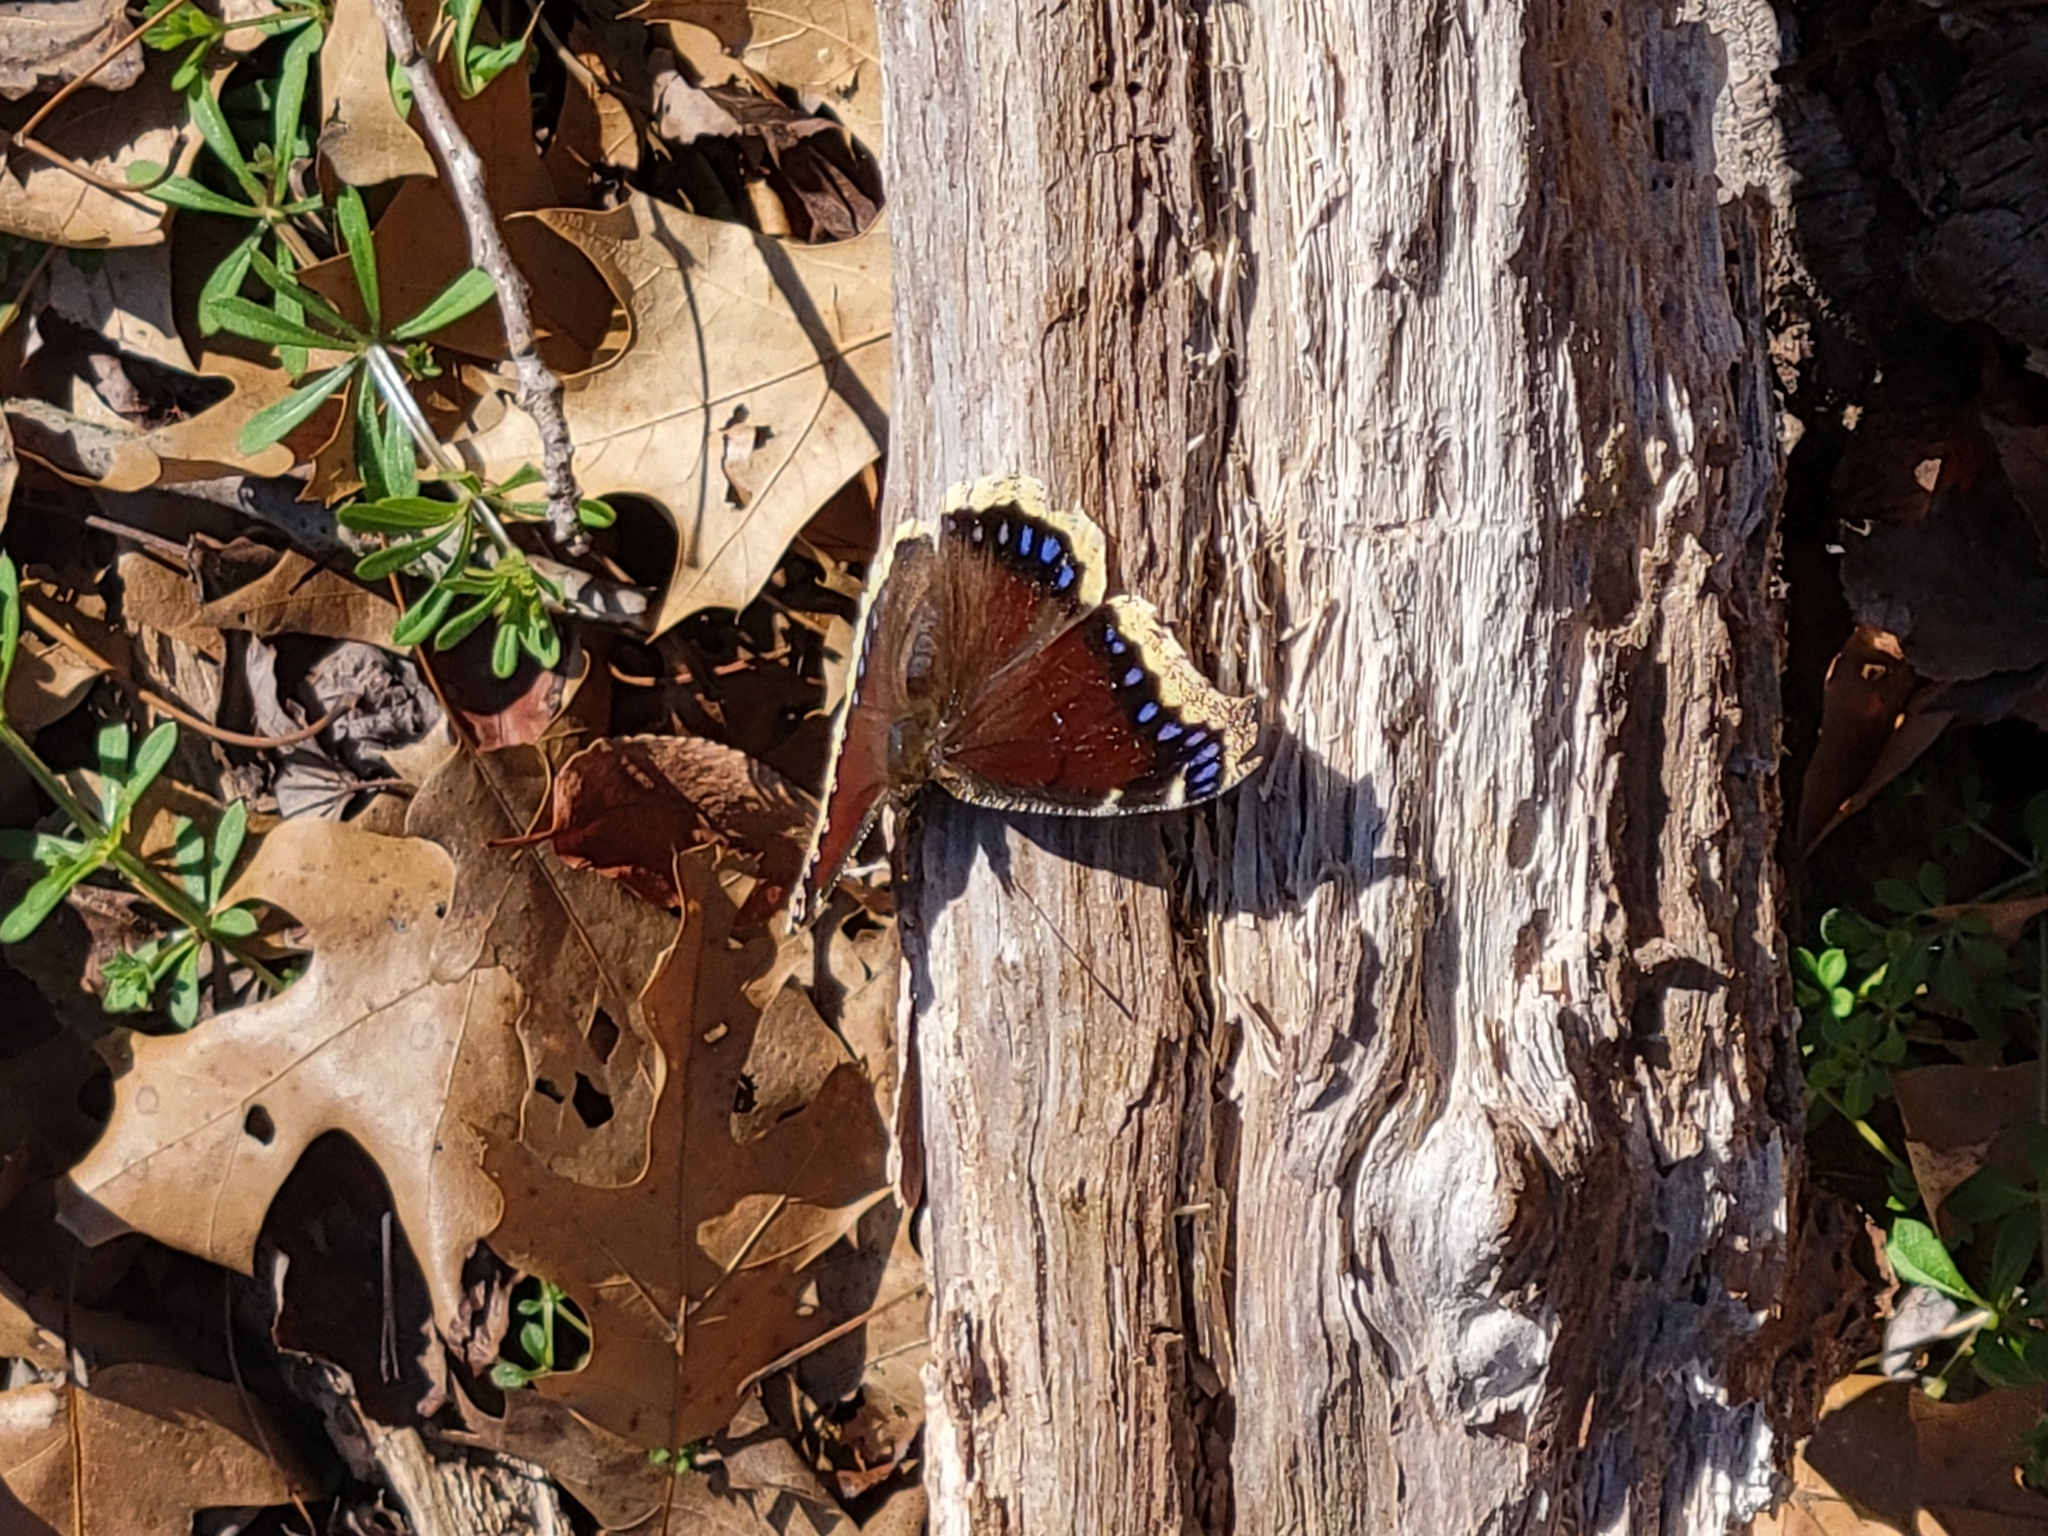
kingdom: Animalia
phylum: Arthropoda
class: Insecta
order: Lepidoptera
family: Nymphalidae
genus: Nymphalis
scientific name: Nymphalis antiopa
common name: Camberwell beauty
